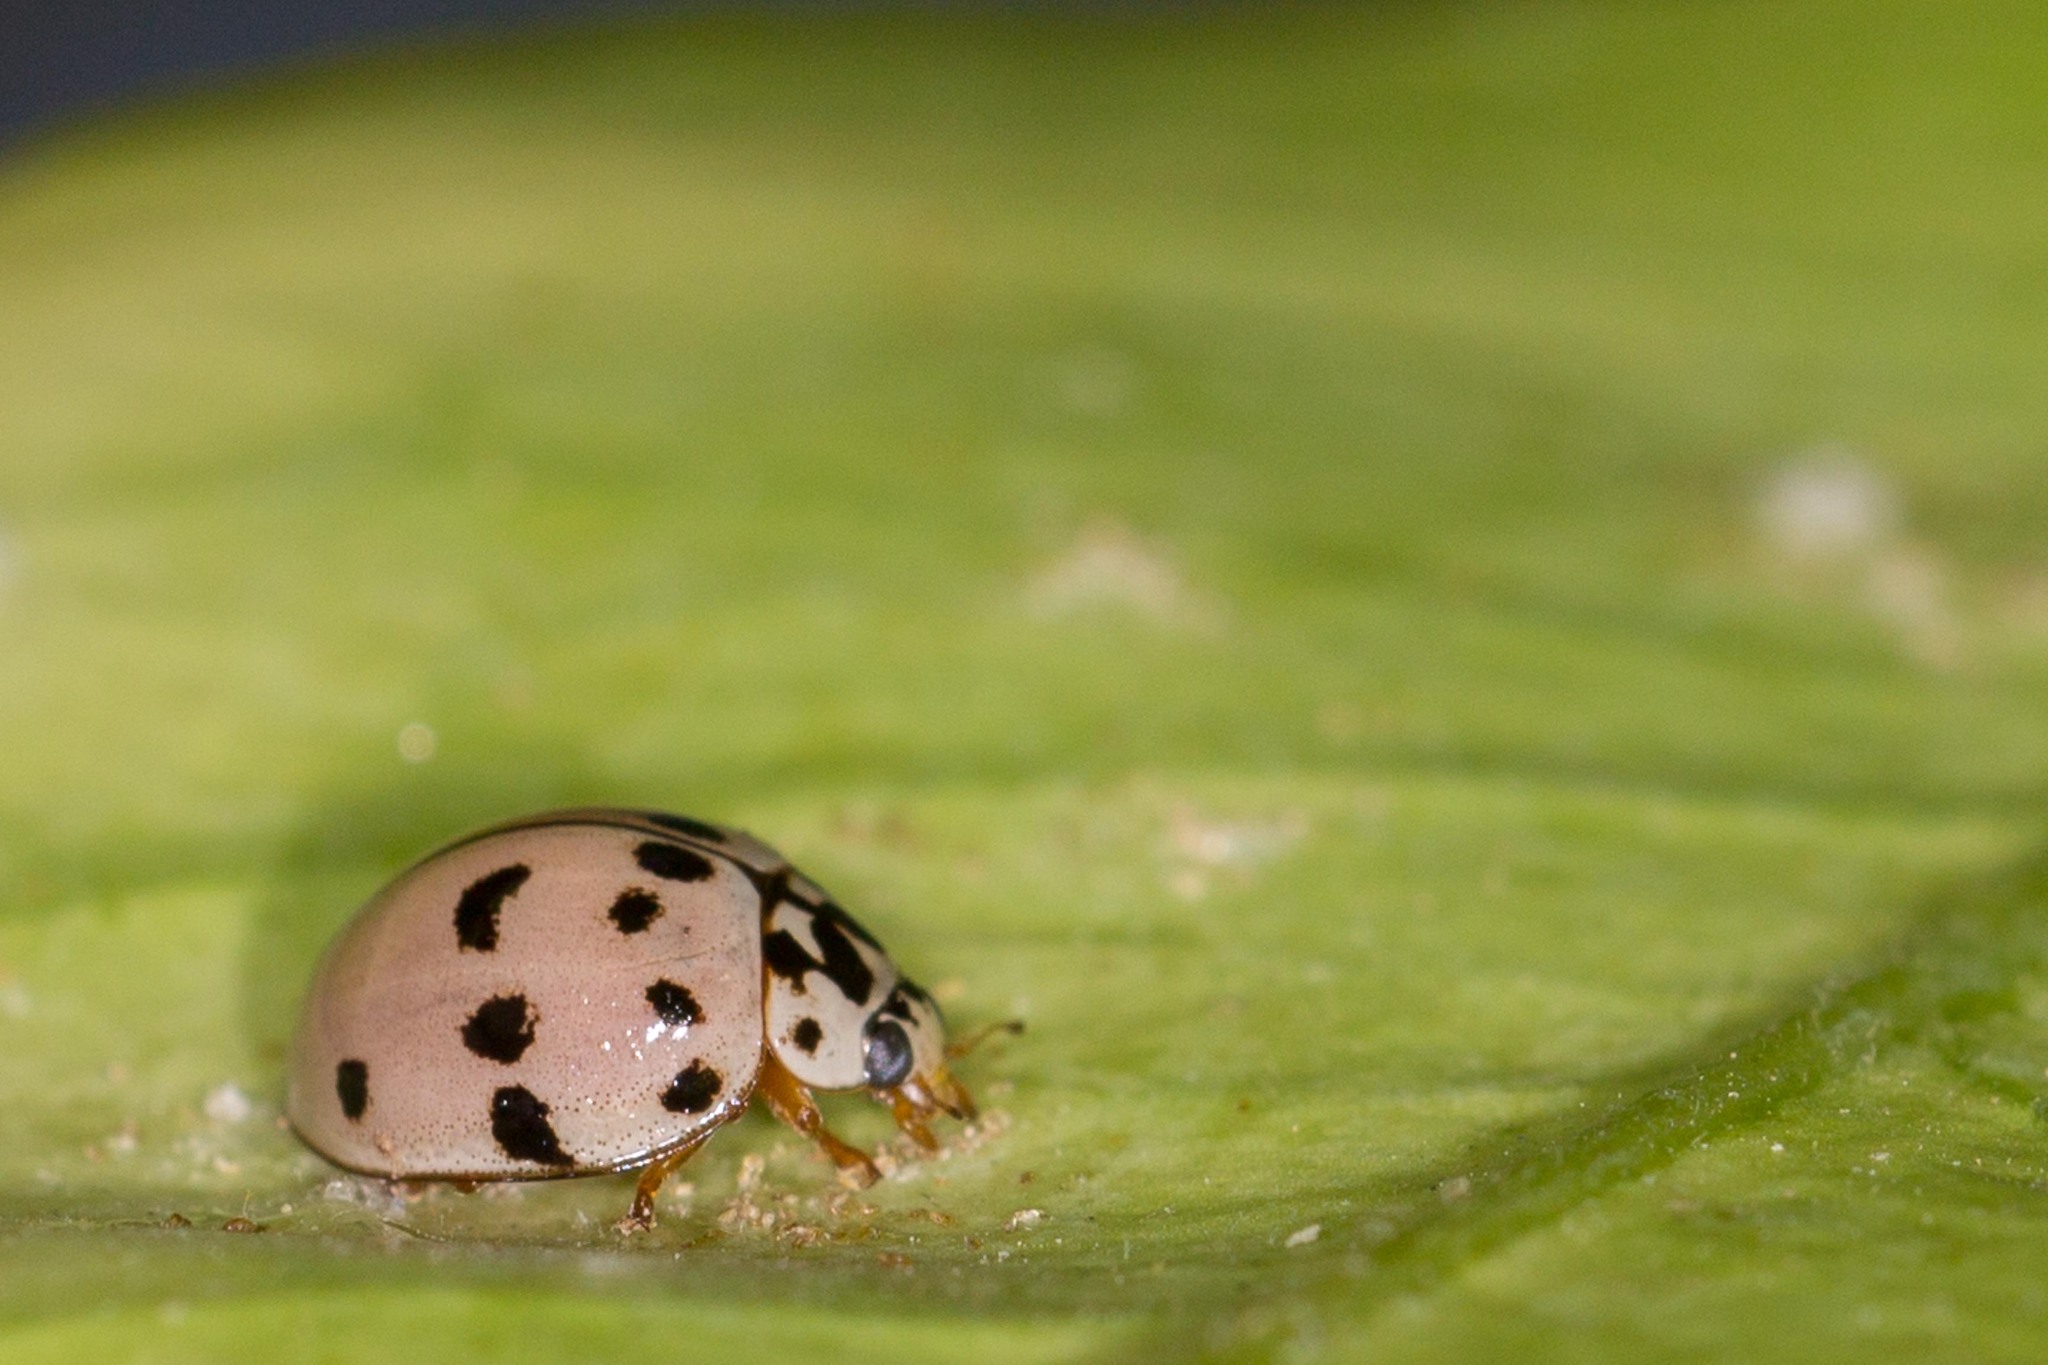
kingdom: Animalia
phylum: Arthropoda
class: Insecta
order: Coleoptera
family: Coccinellidae
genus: Olla
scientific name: Olla v-nigrum
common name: Ashy gray lady beetle
